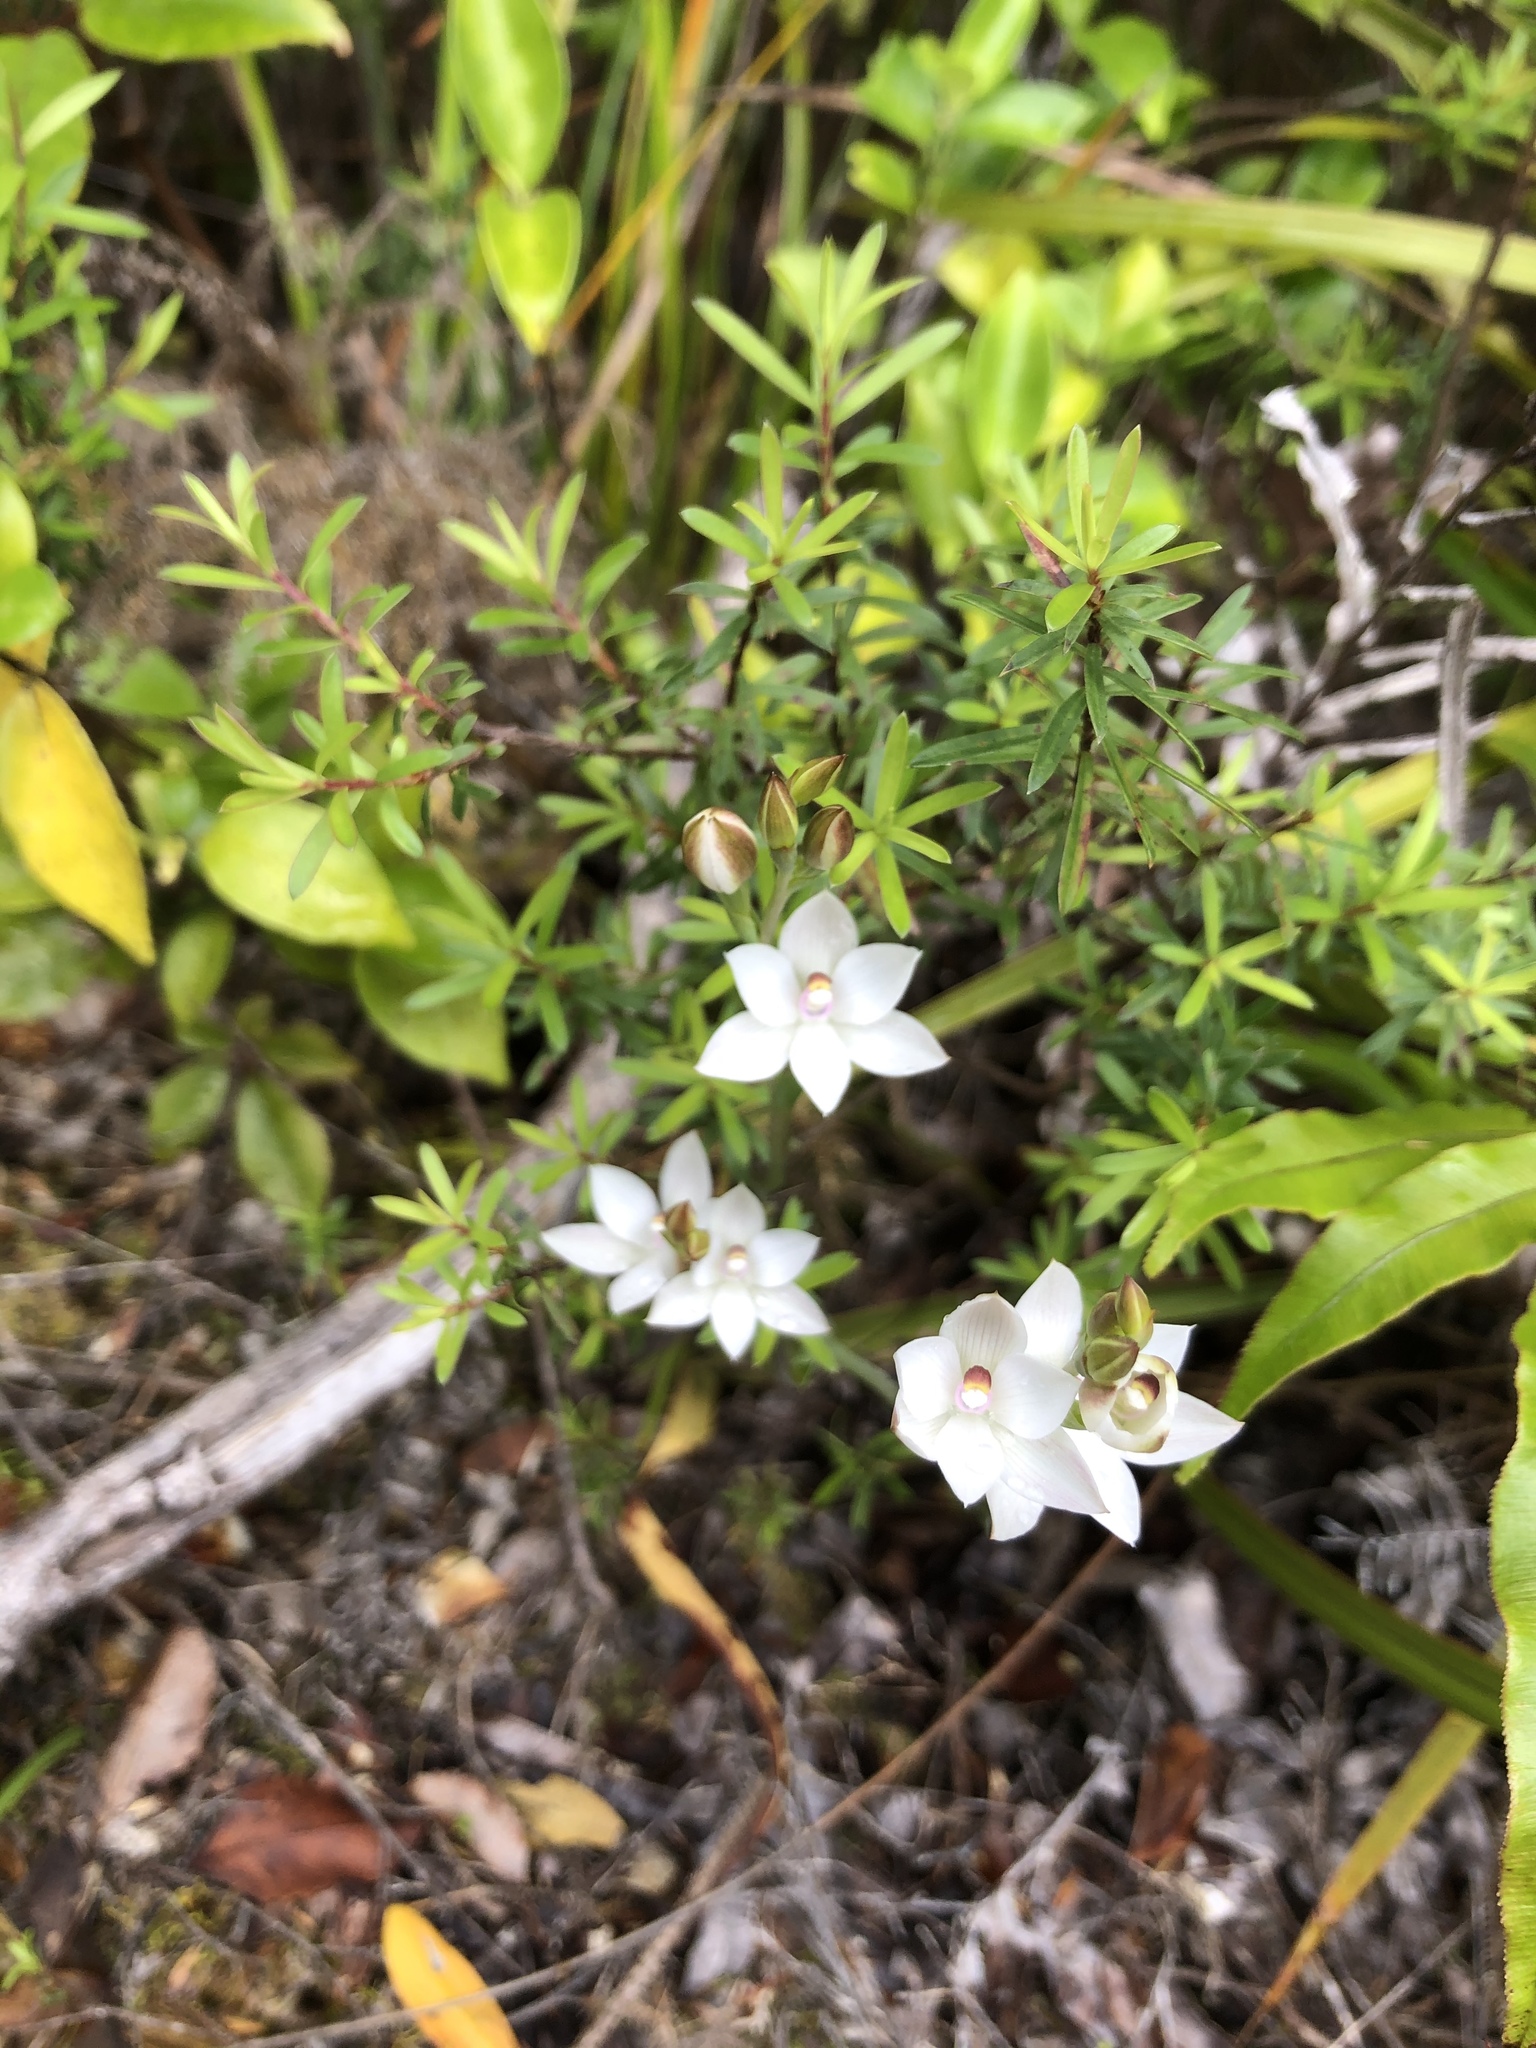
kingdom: Plantae
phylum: Tracheophyta
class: Liliopsida
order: Asparagales
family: Orchidaceae
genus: Thelymitra
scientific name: Thelymitra longifolia
